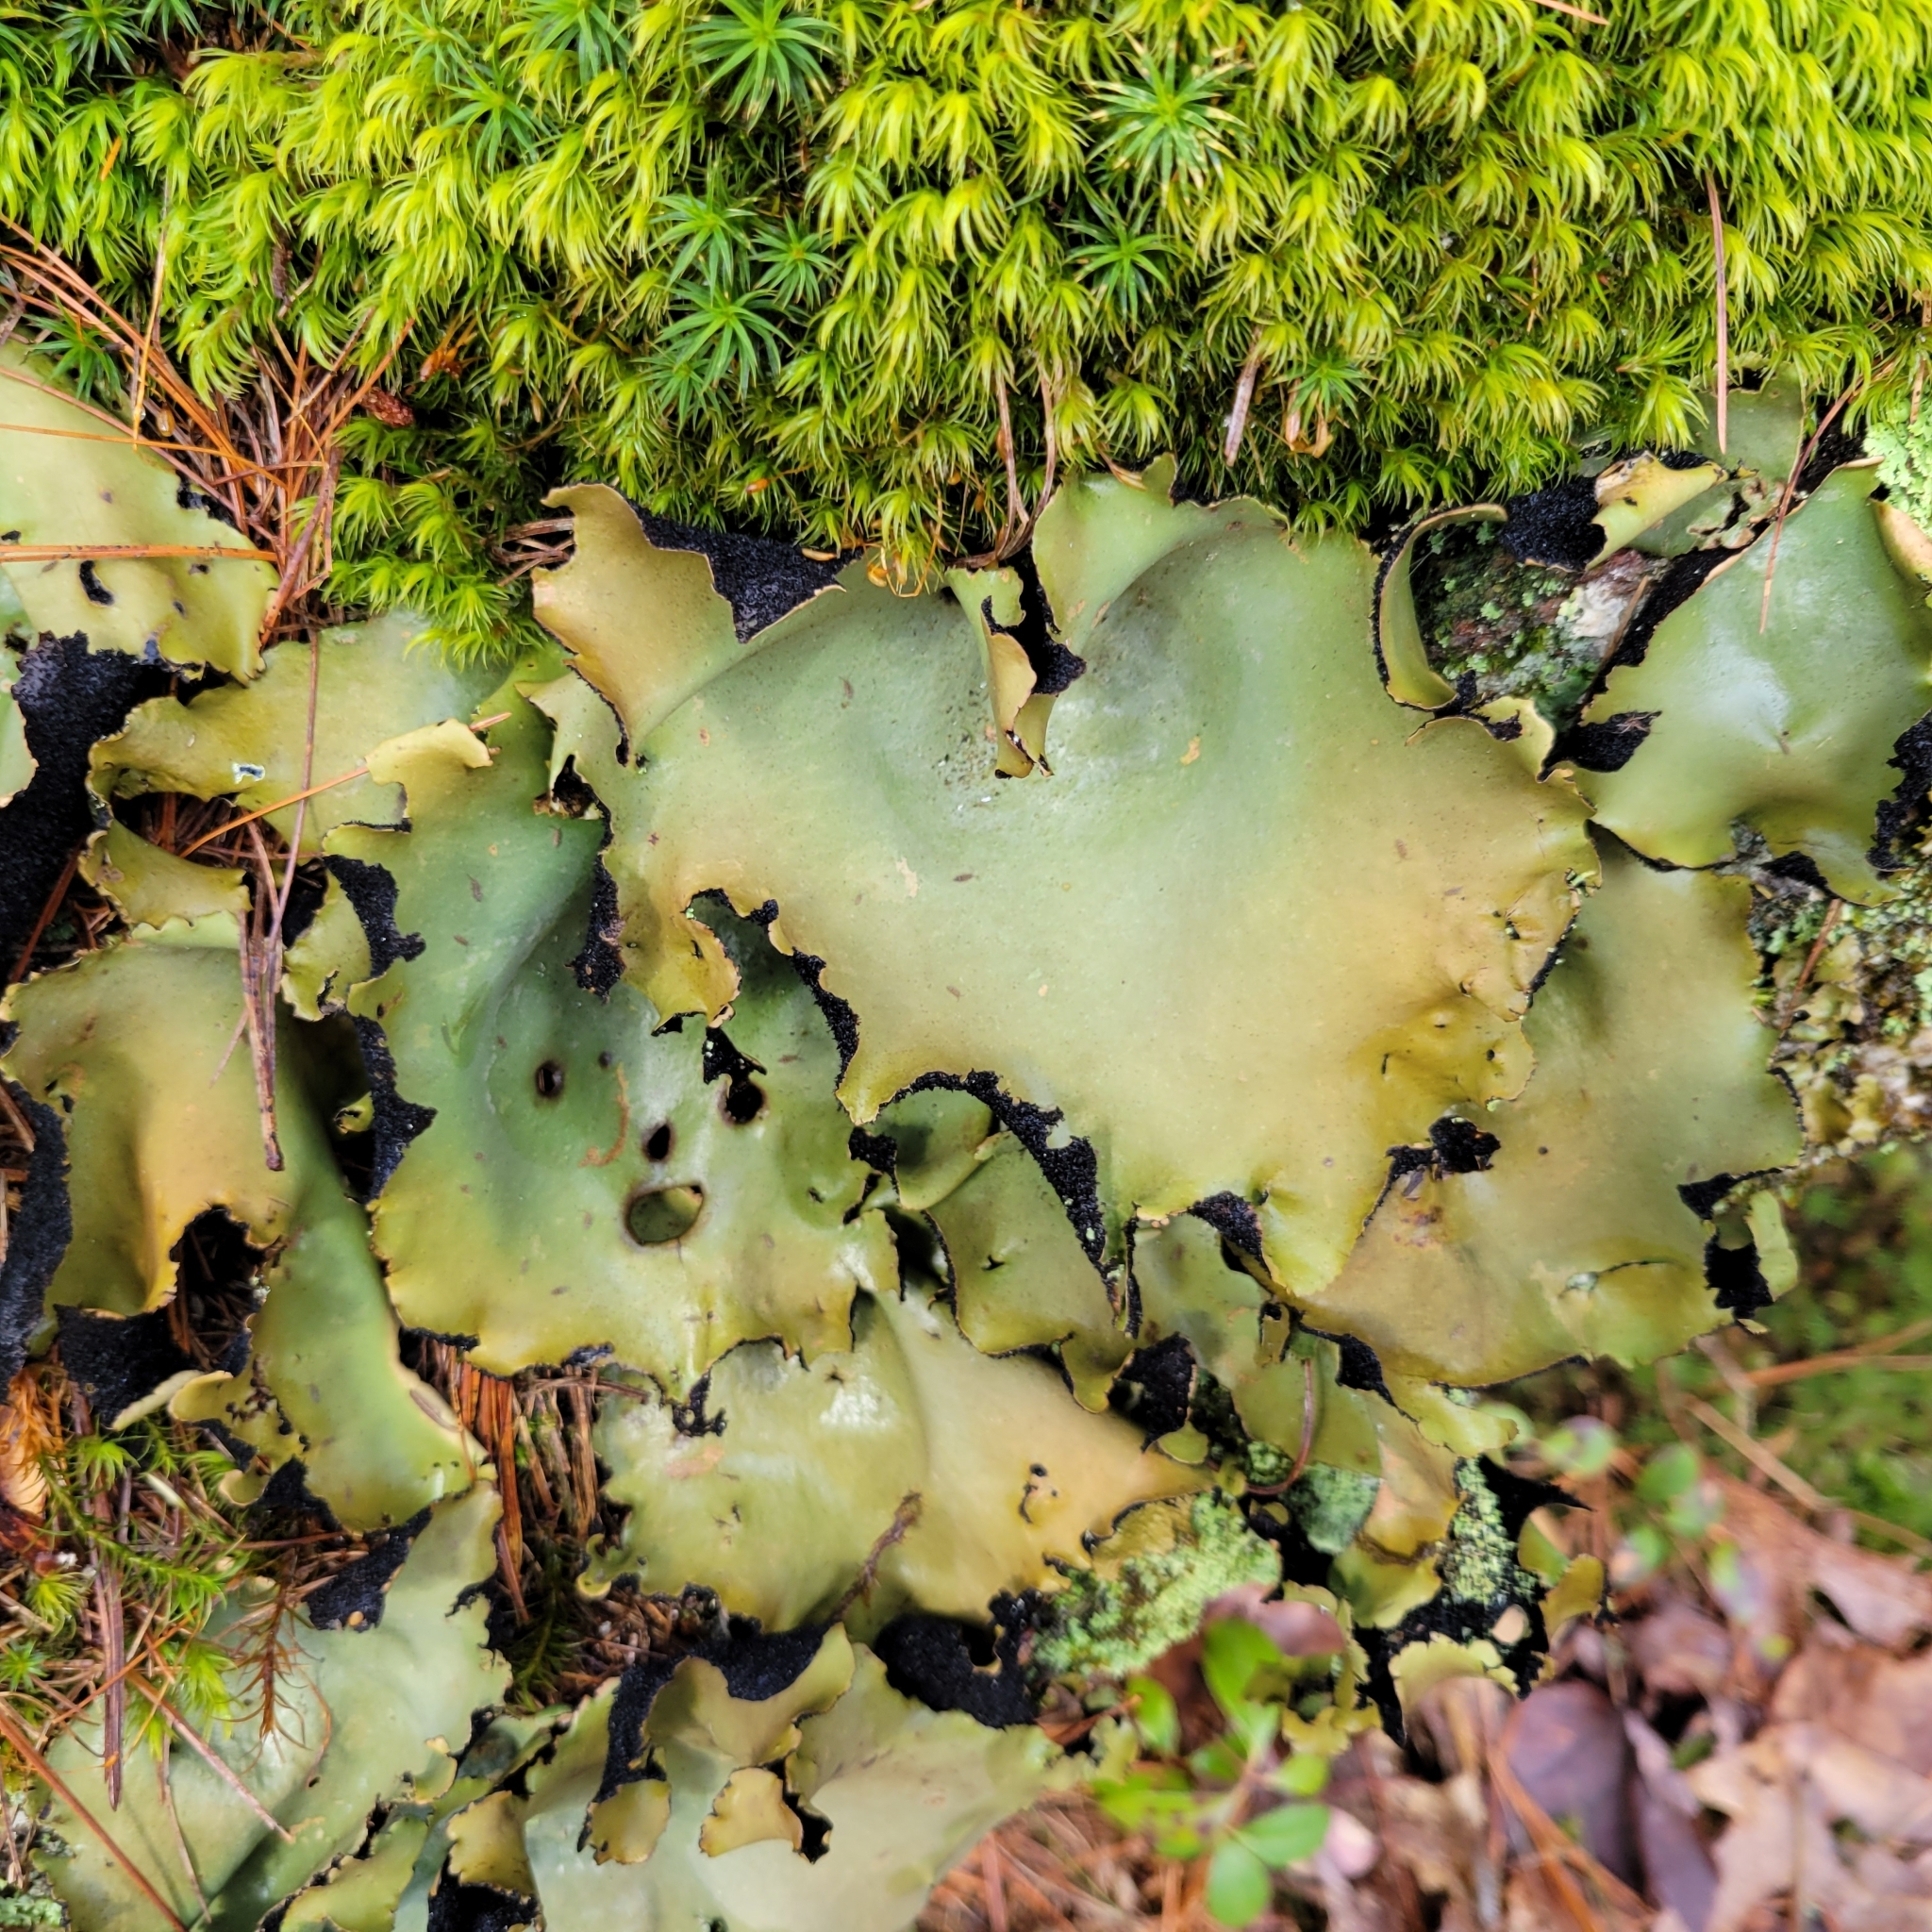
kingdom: Fungi
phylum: Ascomycota
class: Lecanoromycetes
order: Umbilicariales
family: Umbilicariaceae
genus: Umbilicaria
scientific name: Umbilicaria mammulata
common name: Smooth rock tripe
